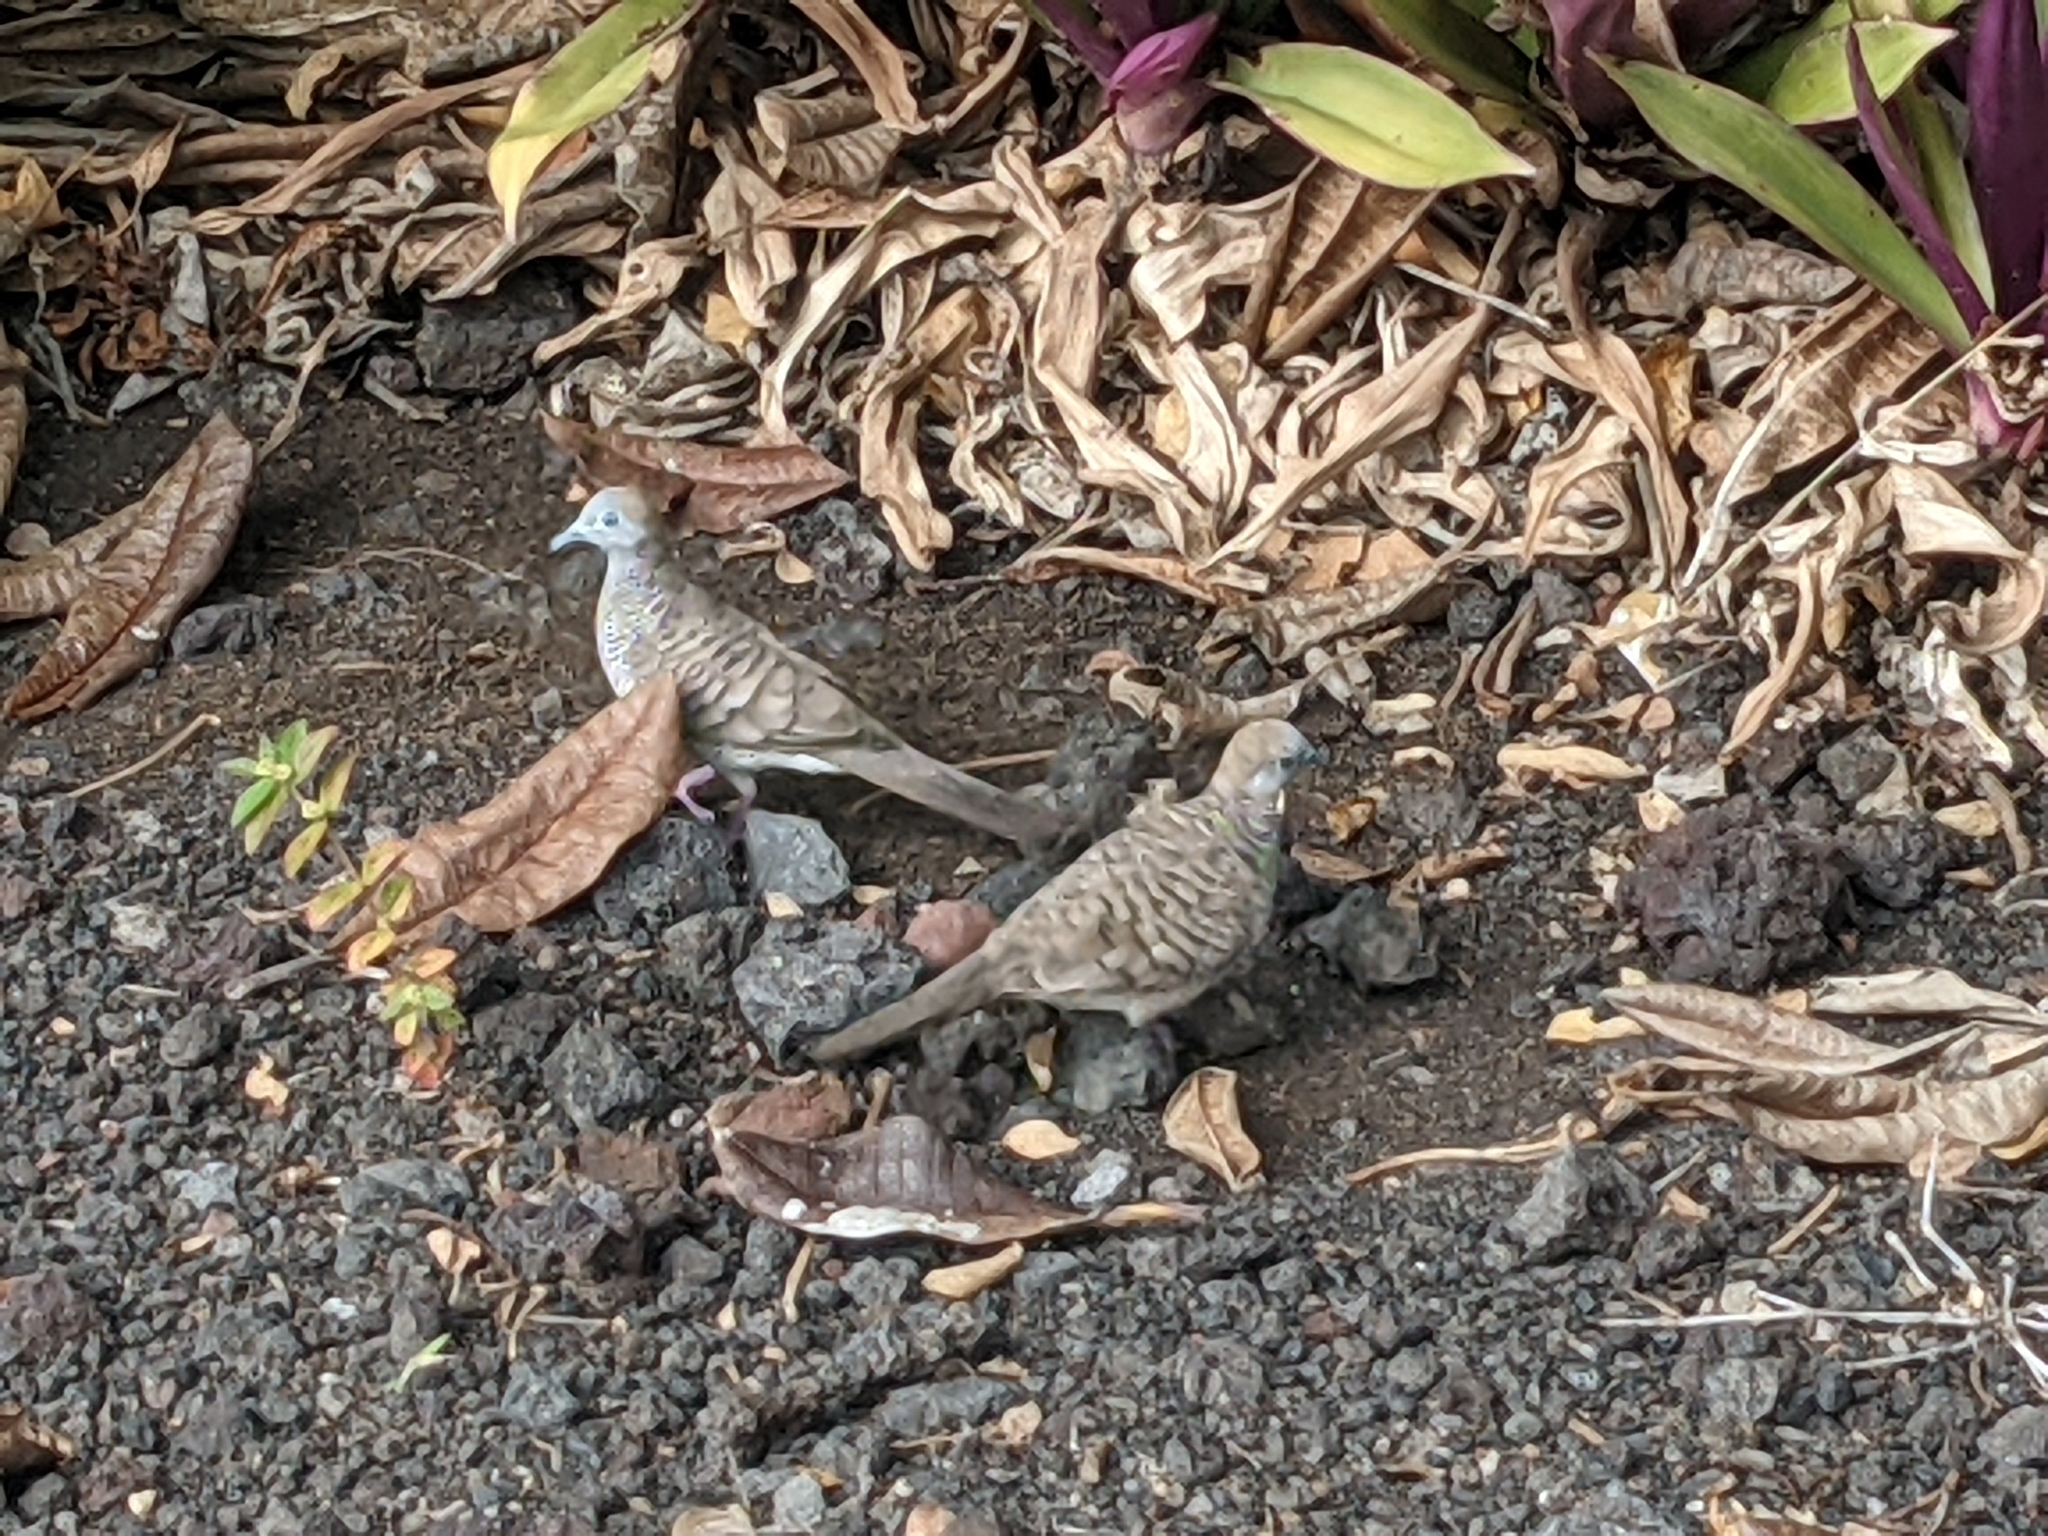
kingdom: Animalia
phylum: Chordata
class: Aves
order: Columbiformes
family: Columbidae
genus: Geopelia
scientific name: Geopelia striata
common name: Zebra dove
